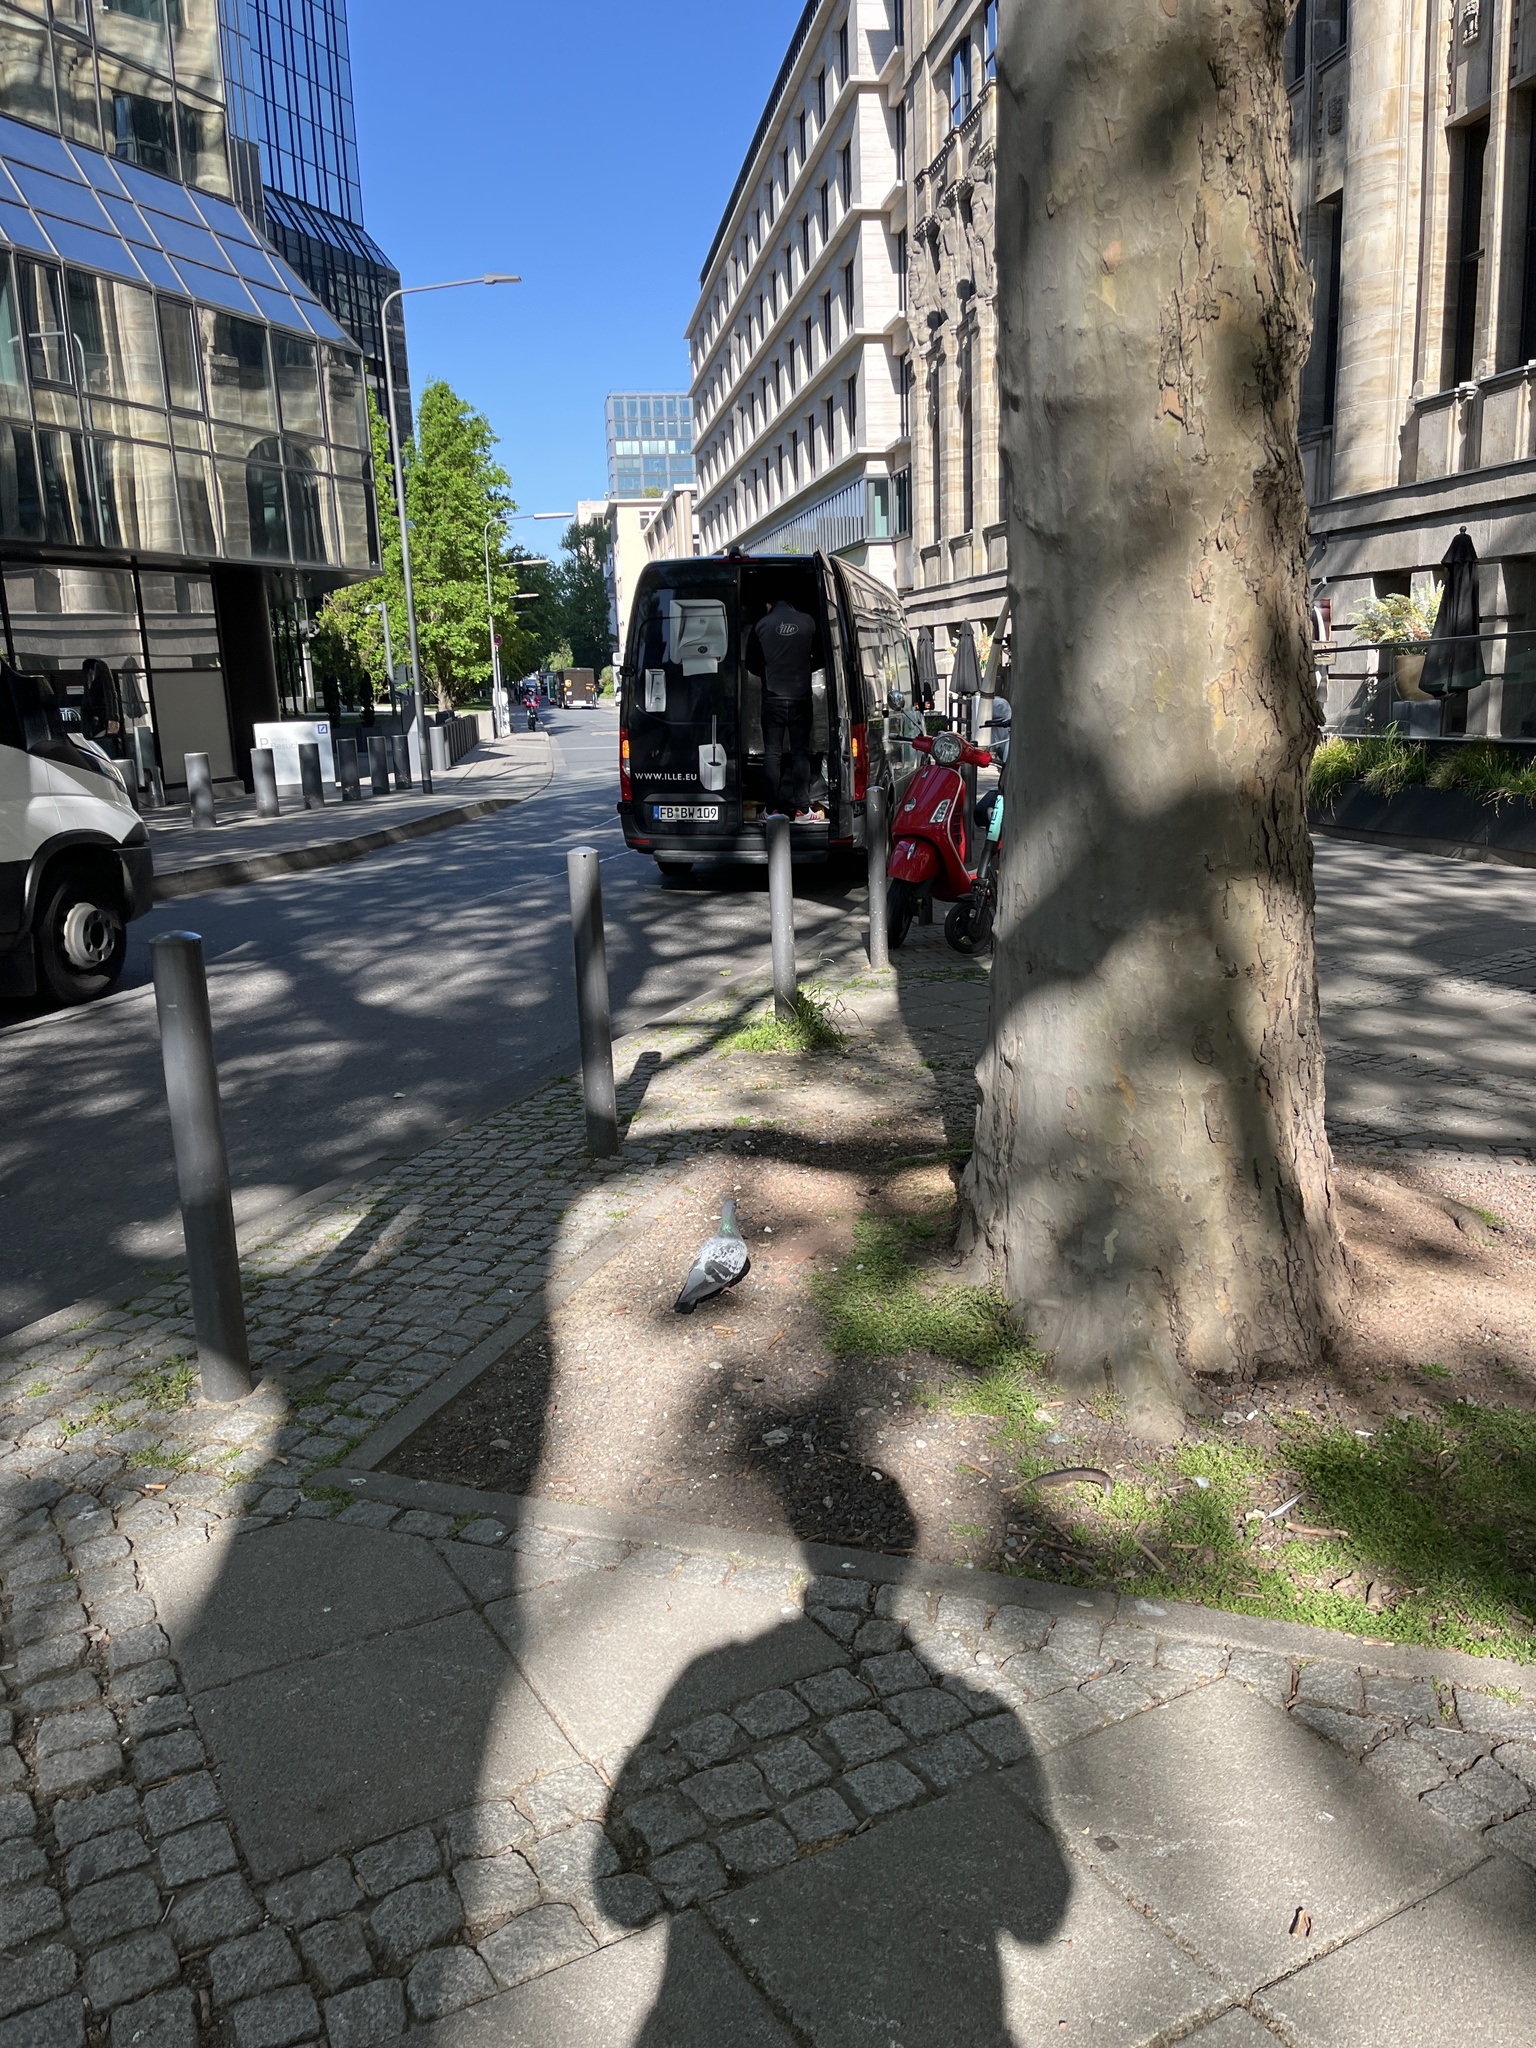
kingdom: Animalia
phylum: Chordata
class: Aves
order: Columbiformes
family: Columbidae
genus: Columba
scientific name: Columba livia
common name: Rock pigeon
